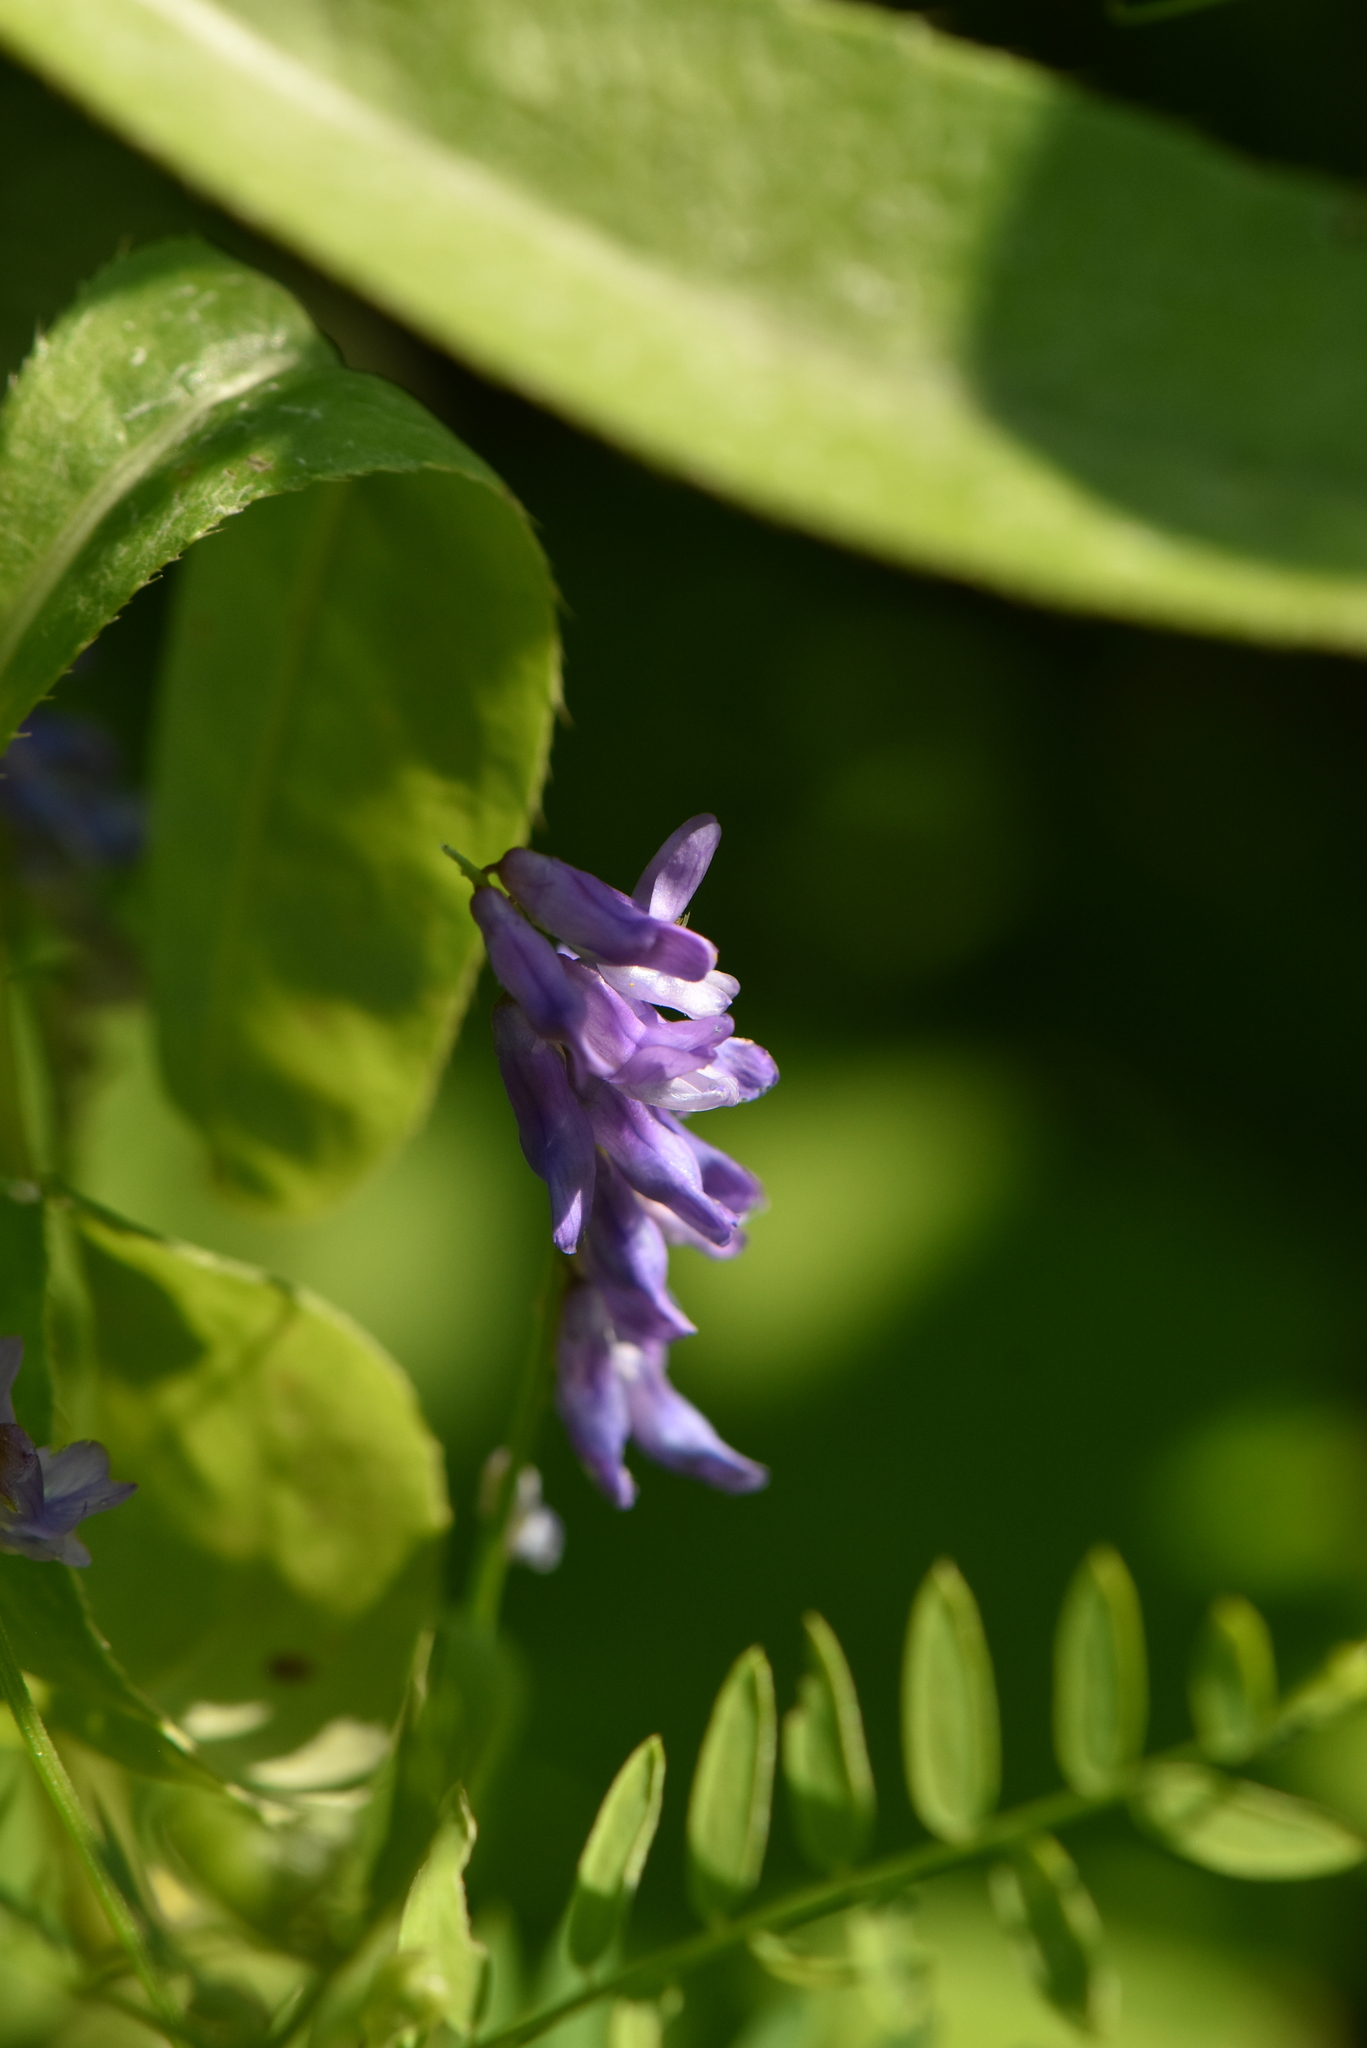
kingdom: Plantae
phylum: Tracheophyta
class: Magnoliopsida
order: Fabales
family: Fabaceae
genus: Vicia
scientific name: Vicia cracca
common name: Bird vetch
